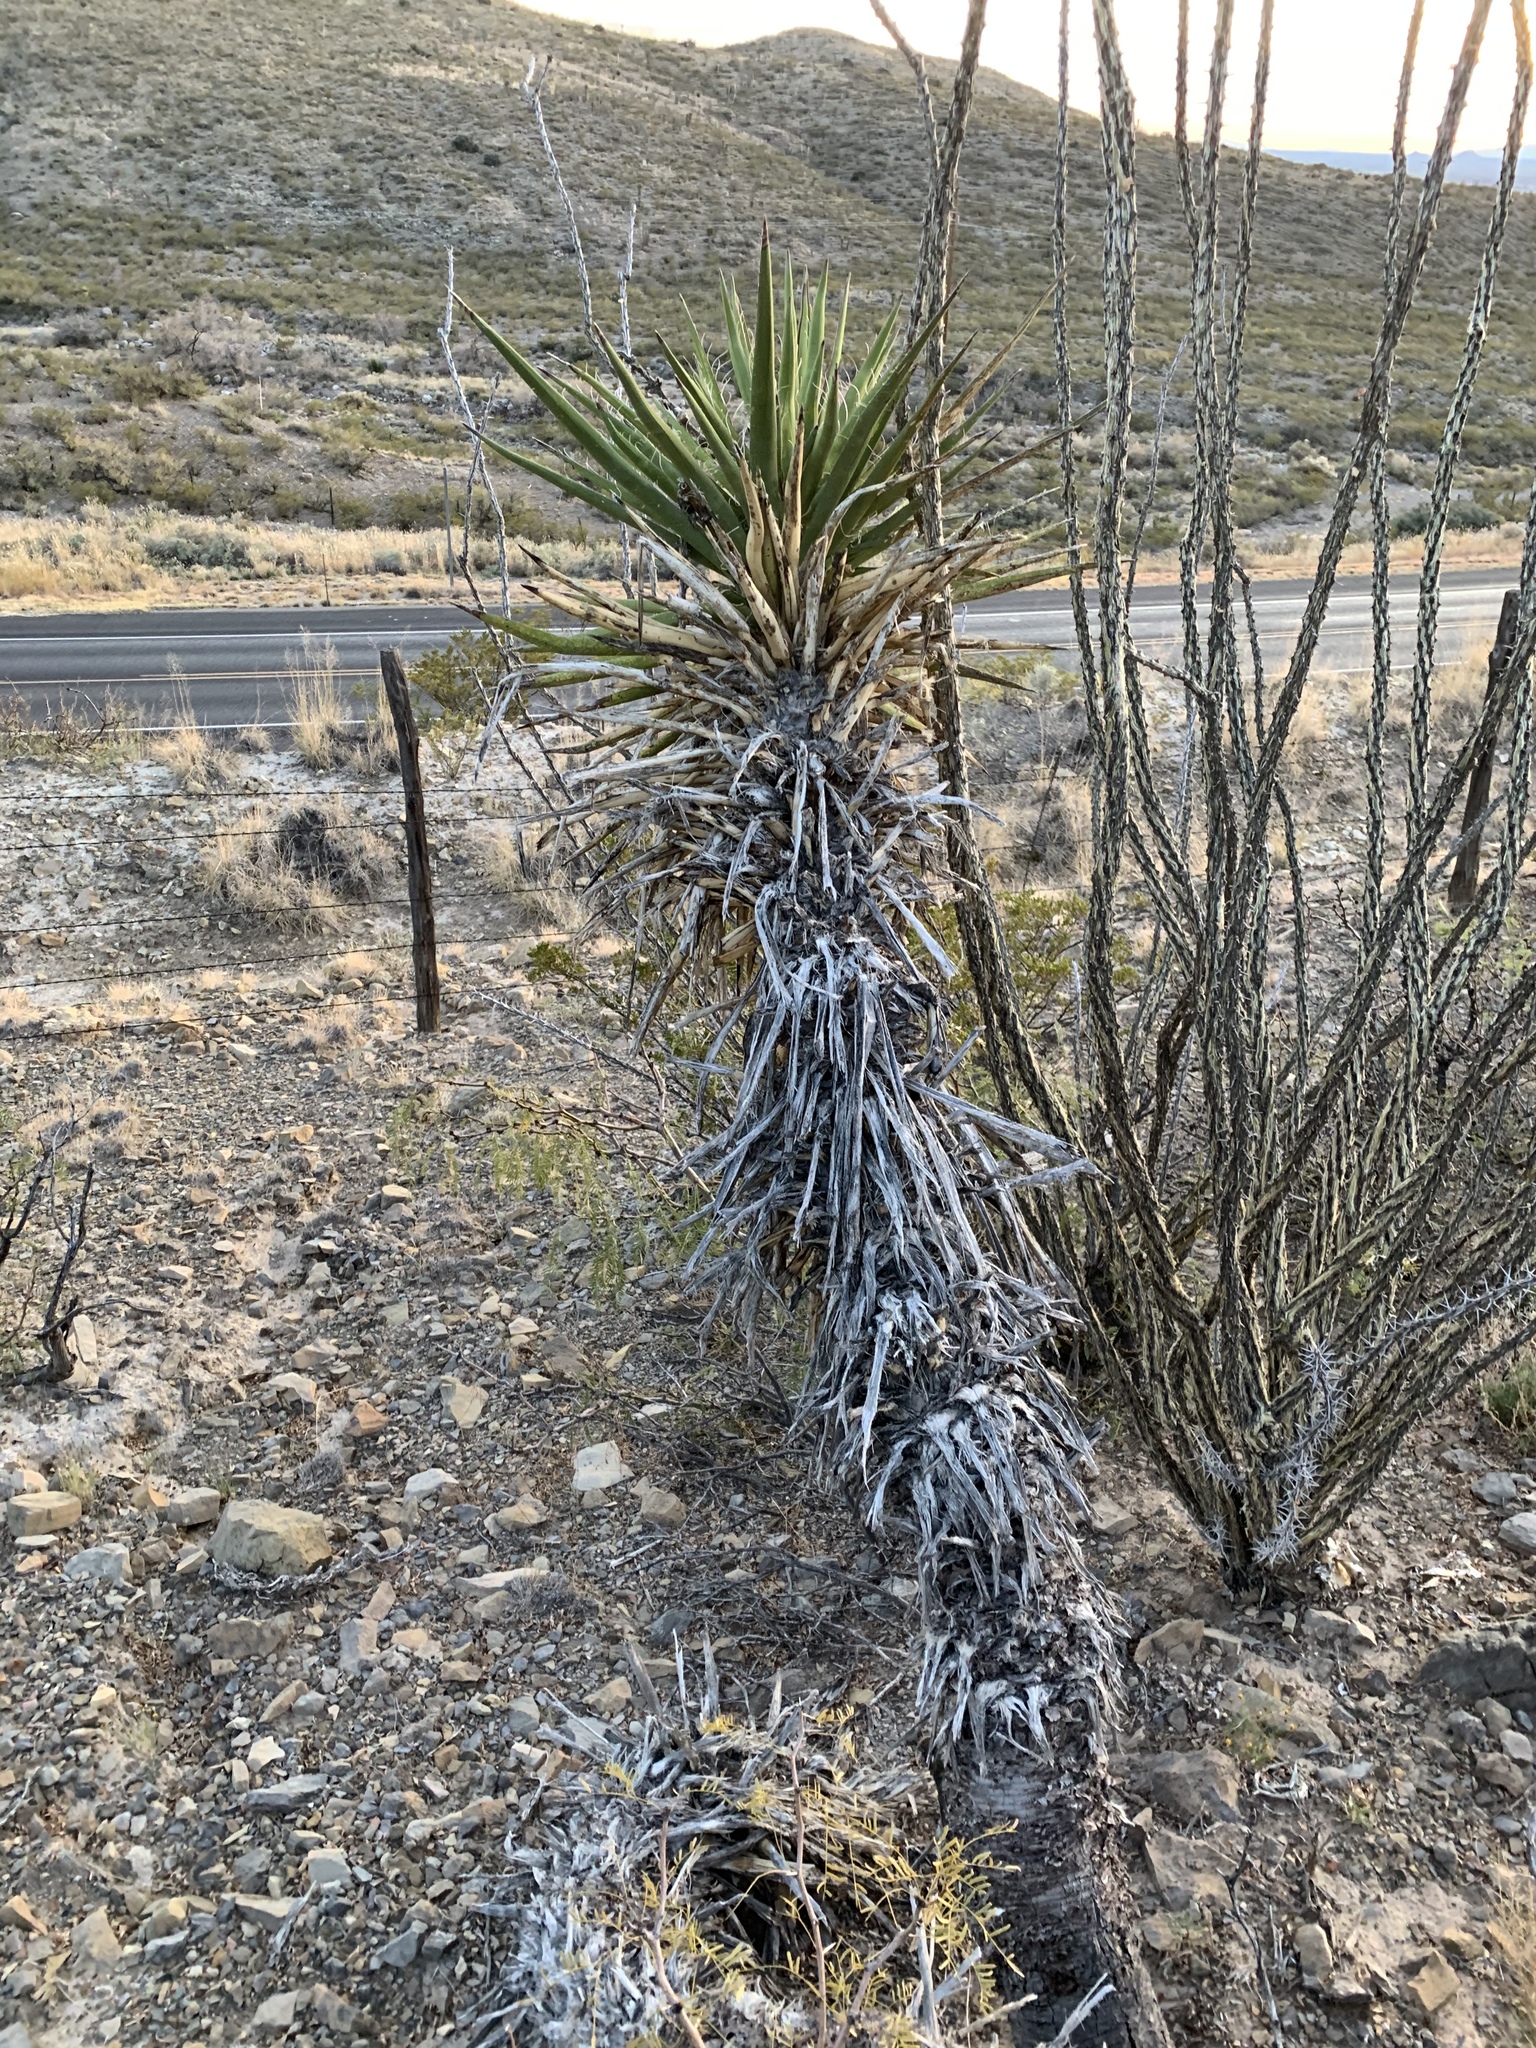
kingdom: Plantae
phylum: Tracheophyta
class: Liliopsida
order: Asparagales
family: Asparagaceae
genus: Yucca
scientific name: Yucca treculiana
